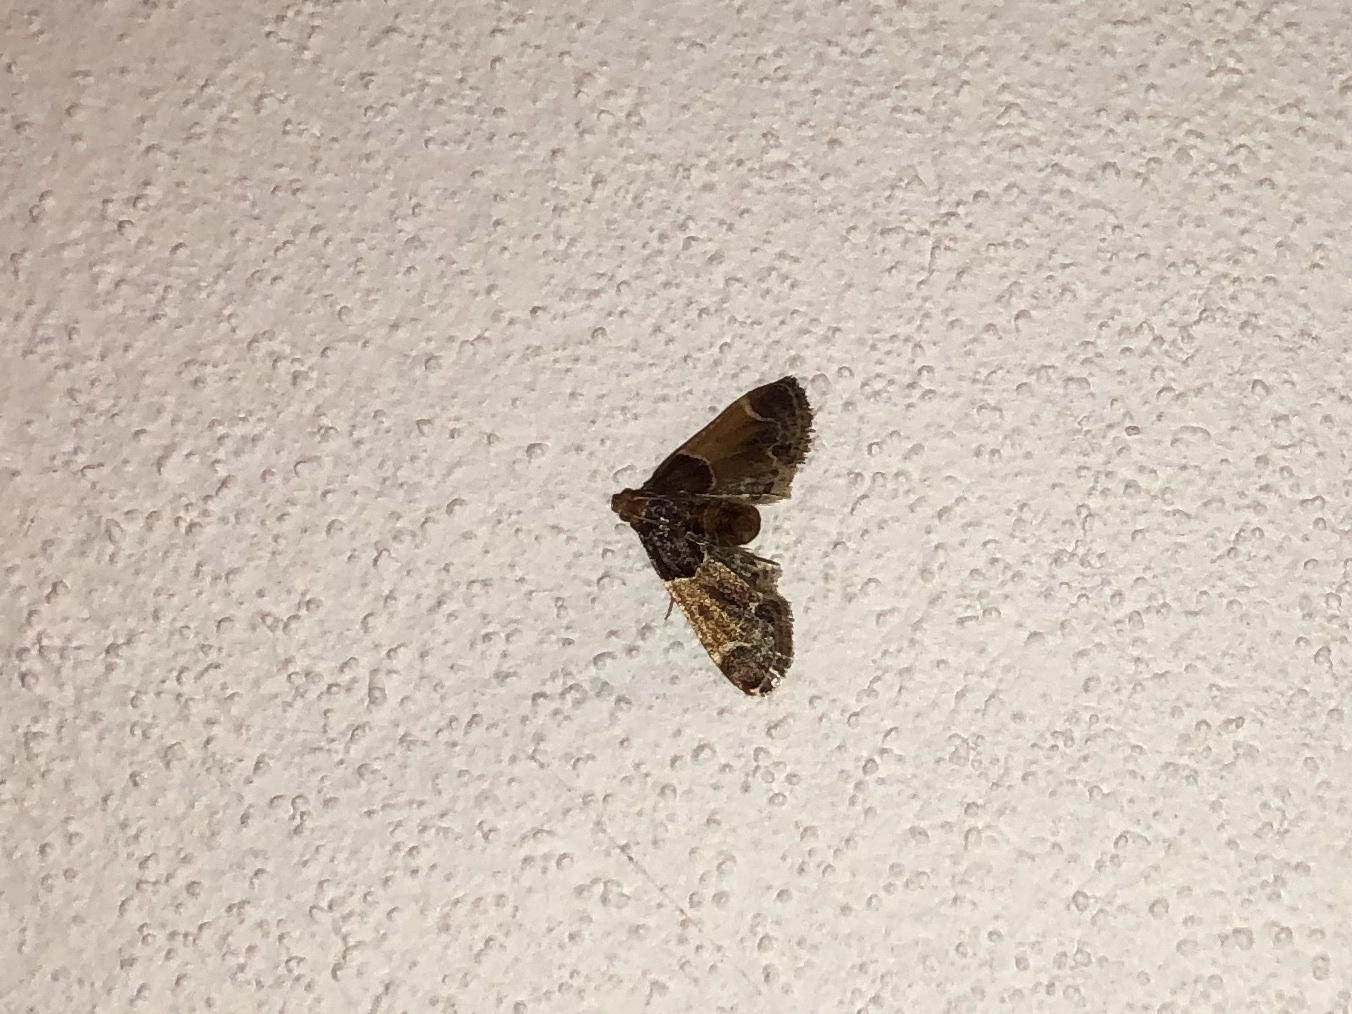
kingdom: Animalia
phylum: Arthropoda
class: Insecta
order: Lepidoptera
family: Pyralidae
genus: Pyralis
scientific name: Pyralis farinalis
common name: Meal moth
